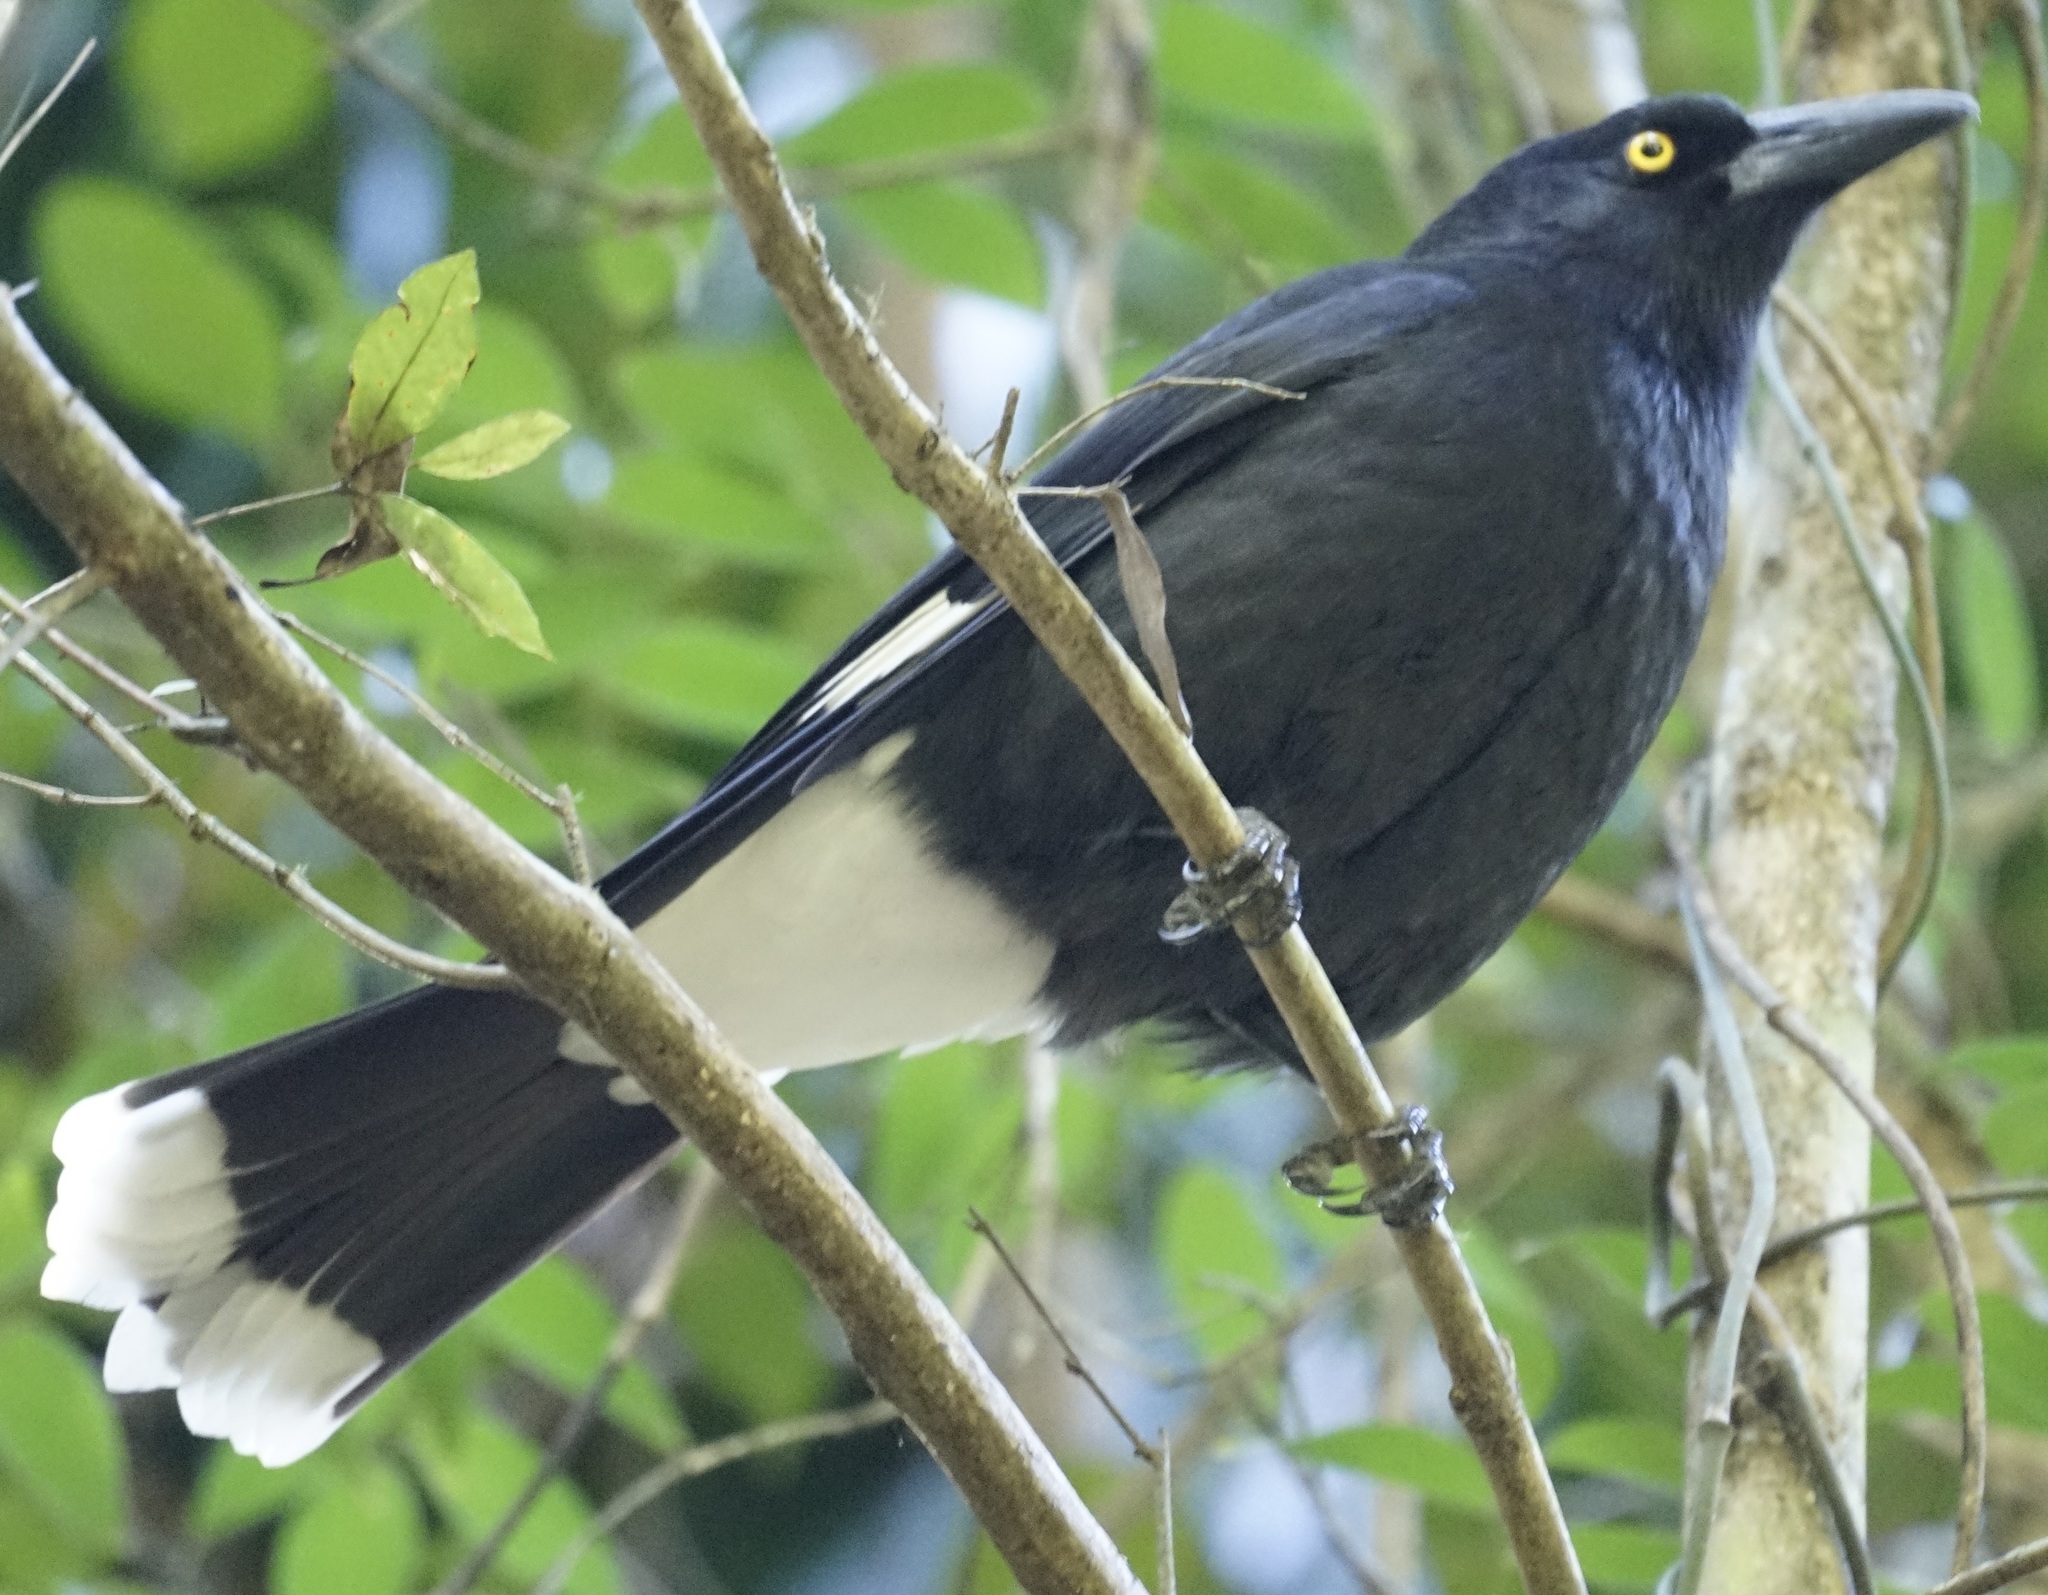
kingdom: Animalia
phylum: Chordata
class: Aves
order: Passeriformes
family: Cracticidae
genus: Strepera
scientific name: Strepera graculina
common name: Pied currawong
